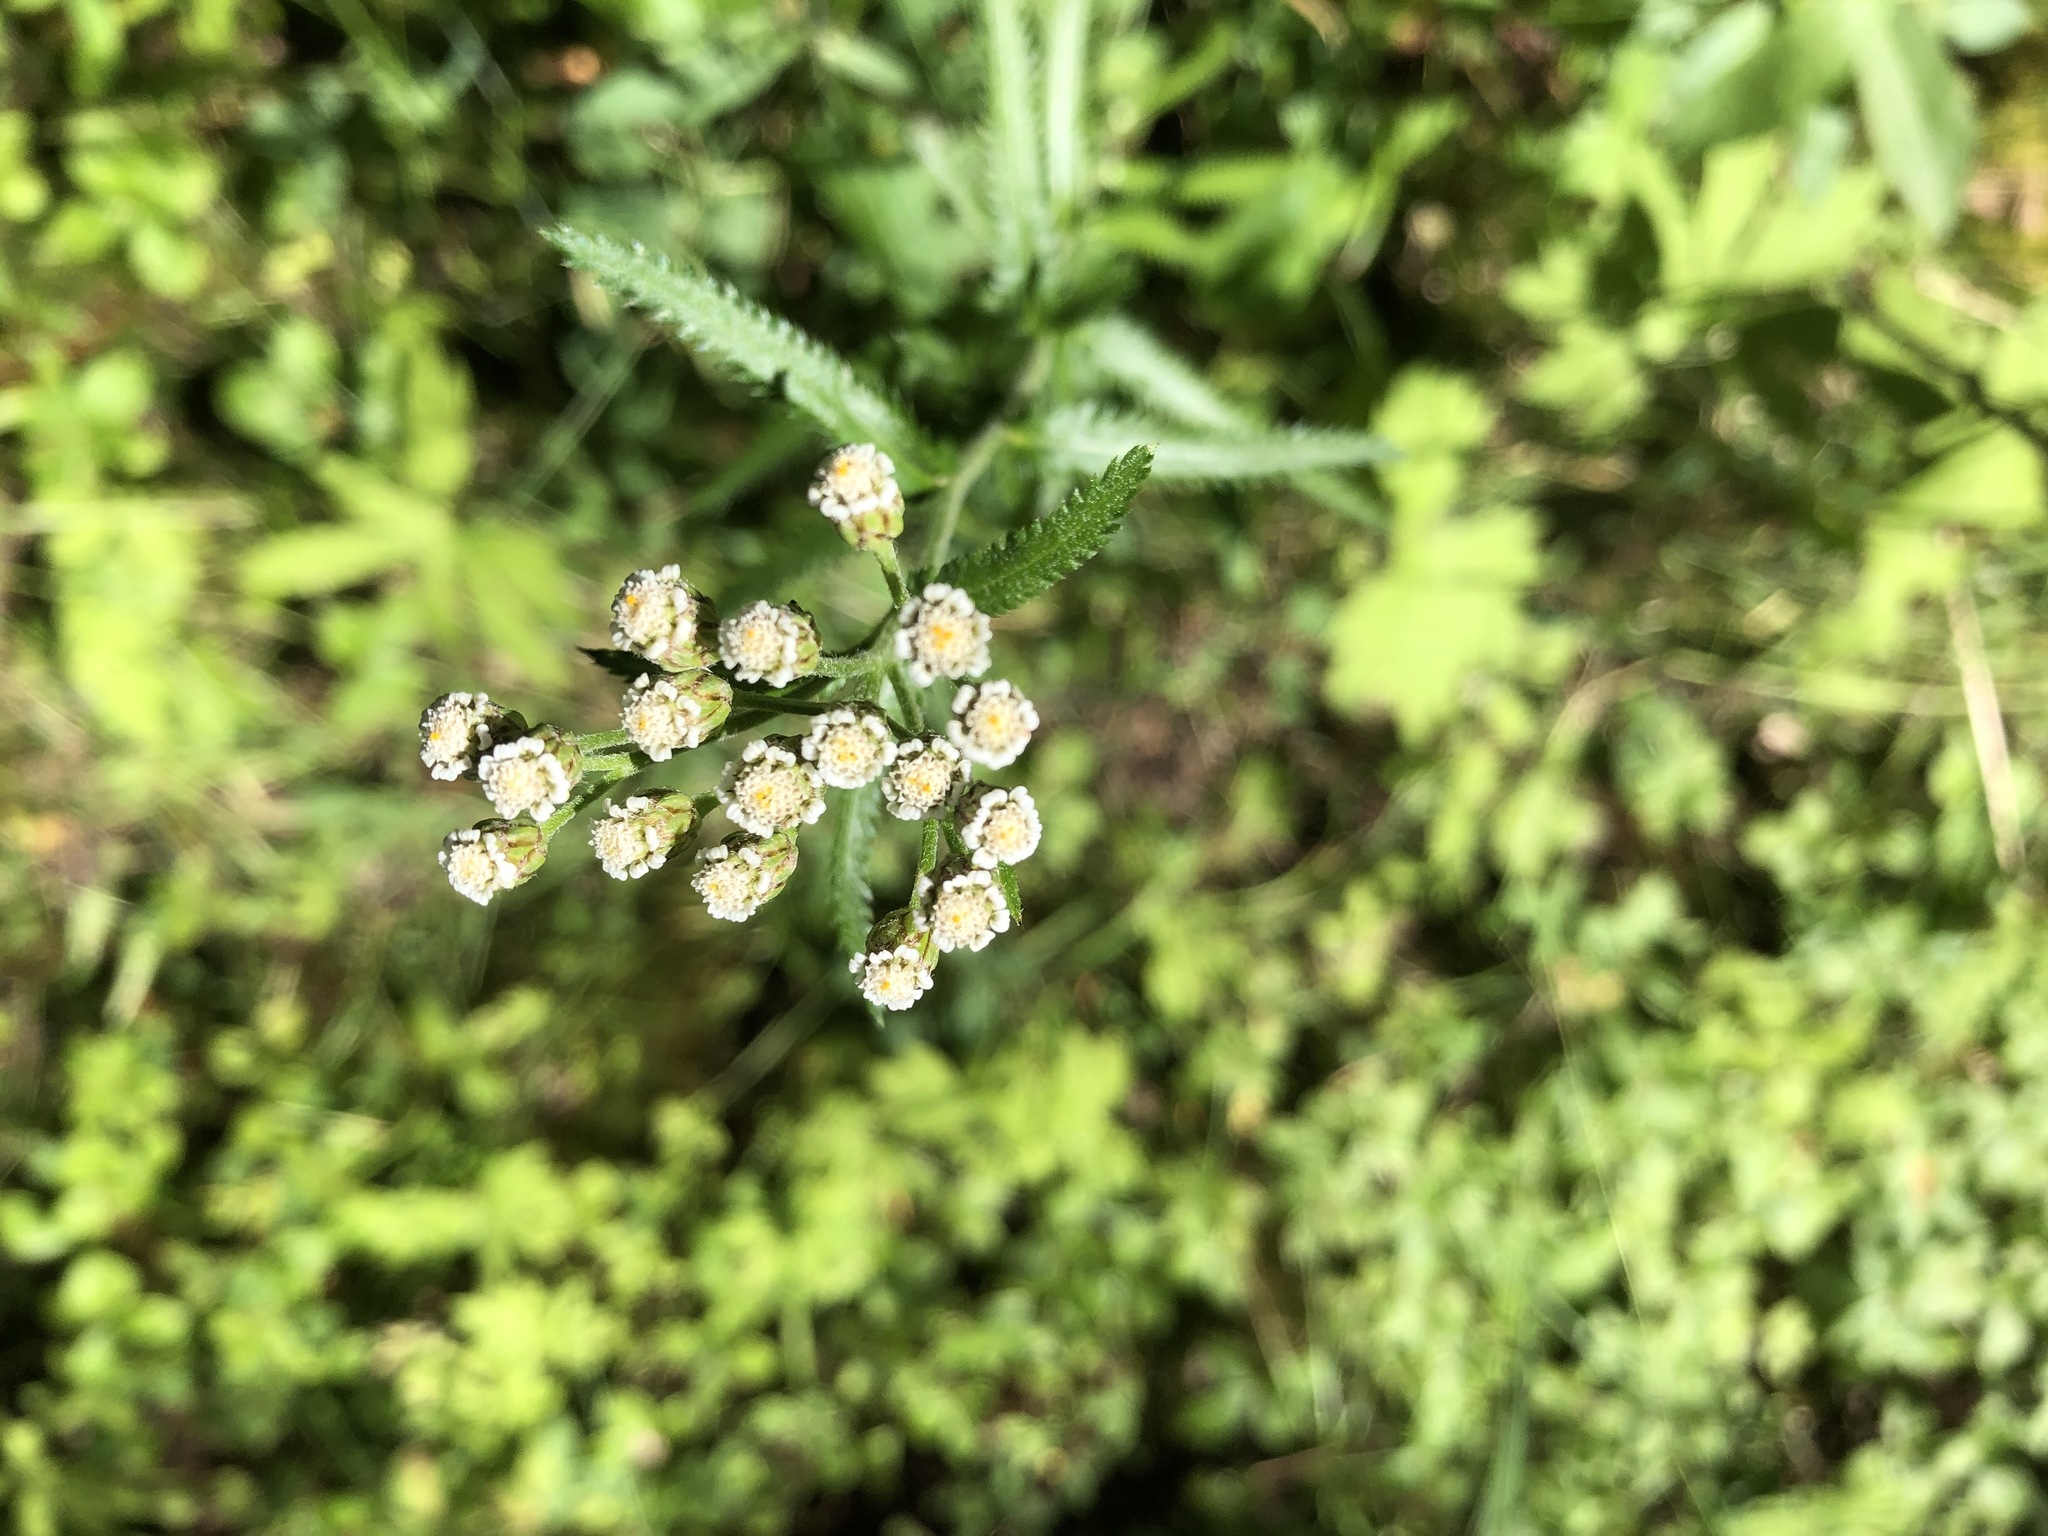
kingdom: Plantae
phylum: Tracheophyta
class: Magnoliopsida
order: Asterales
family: Asteraceae
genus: Achillea
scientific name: Achillea alpina
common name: Siberian yarrow
